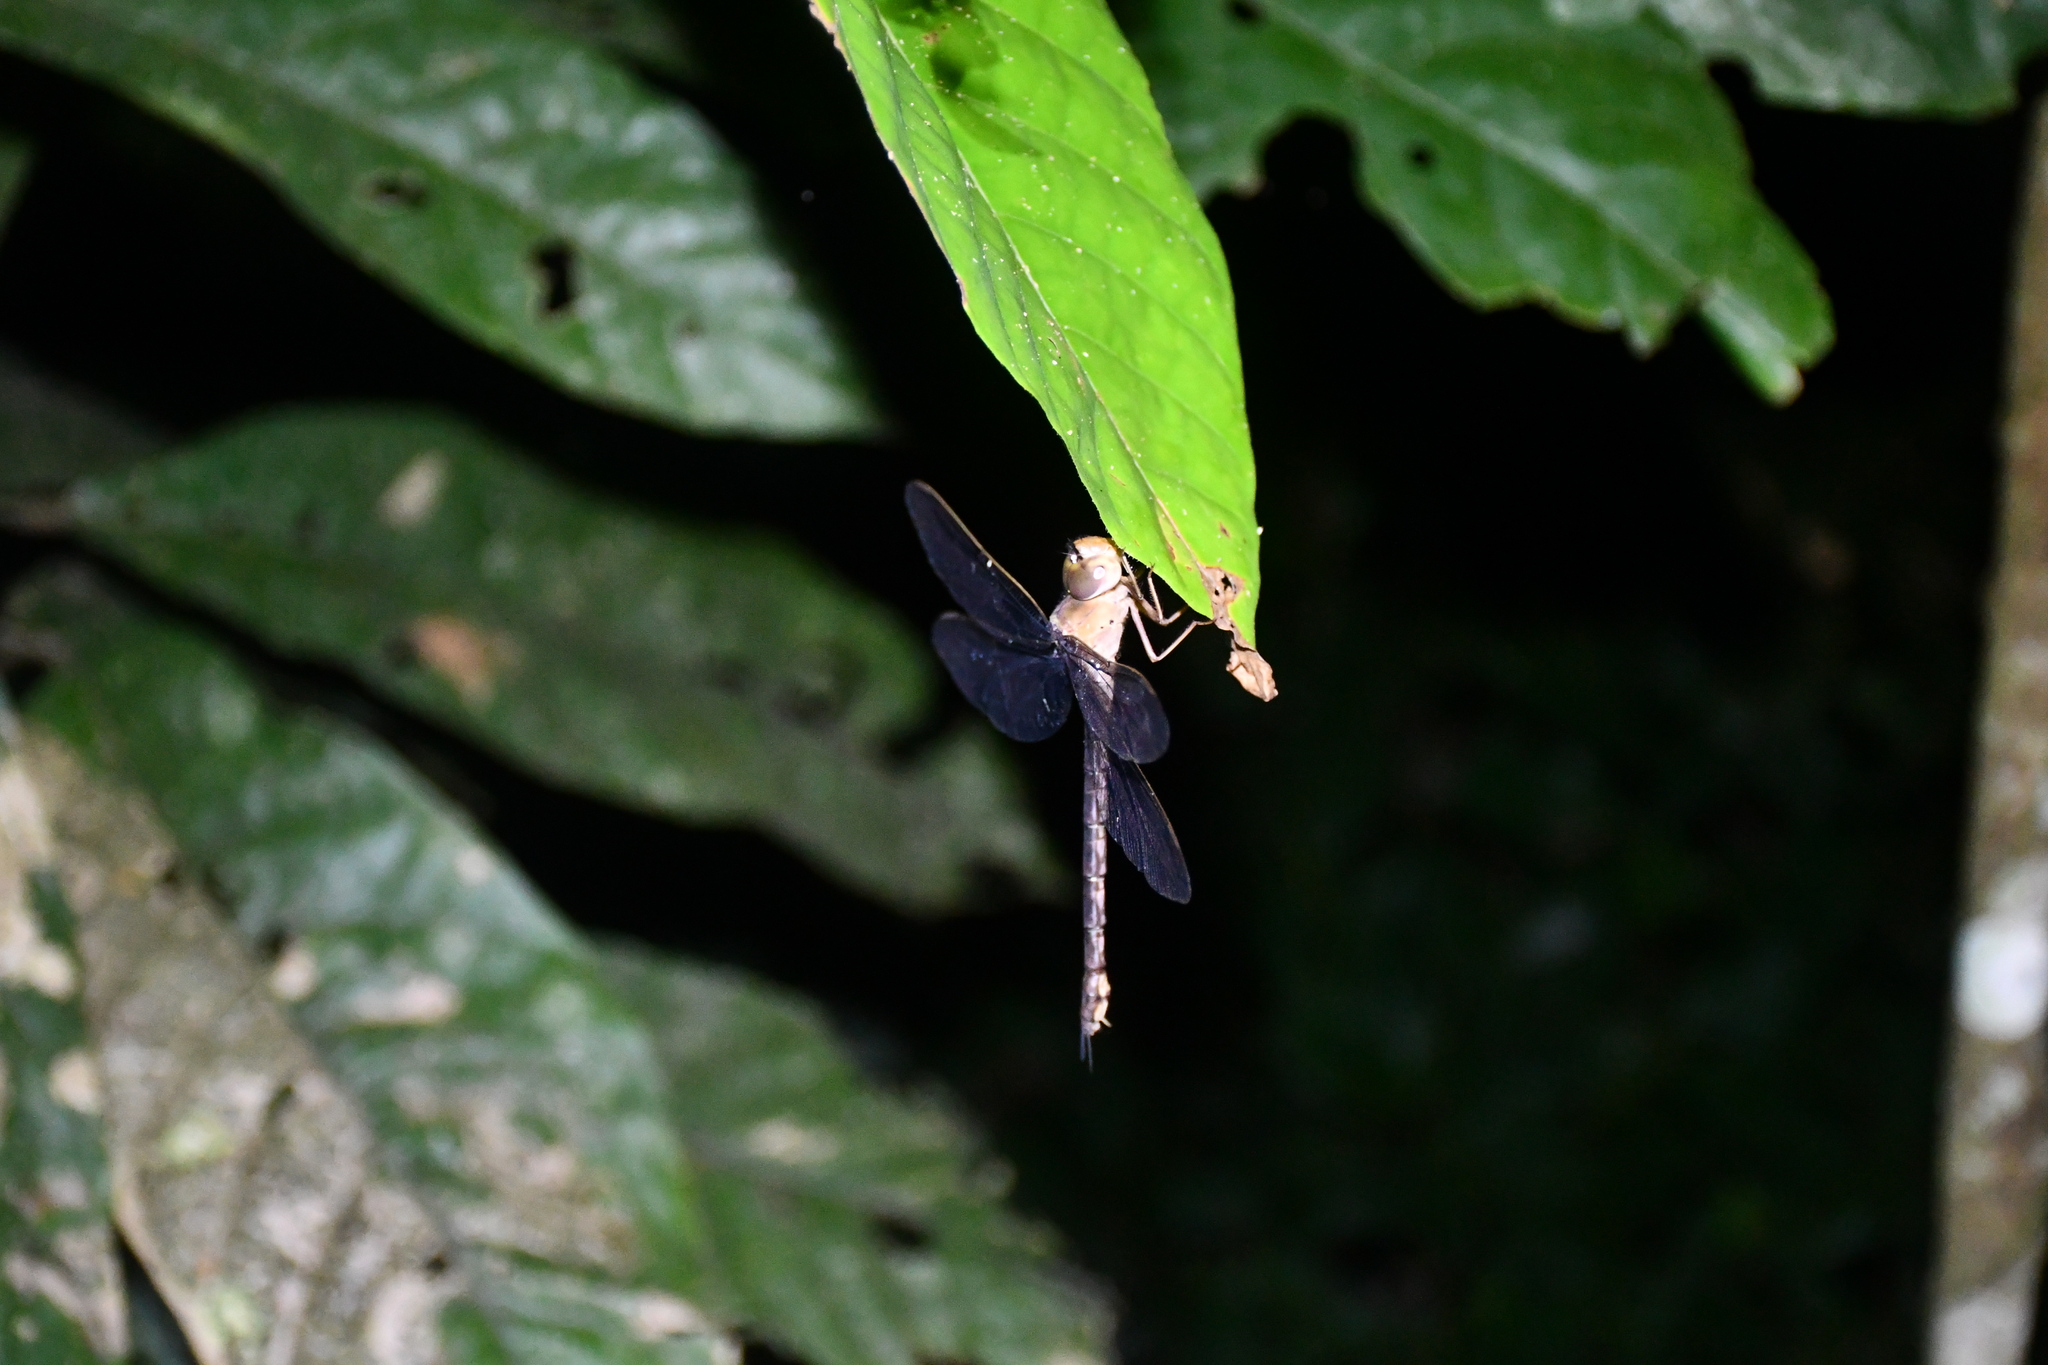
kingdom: Animalia
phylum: Arthropoda
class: Insecta
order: Odonata
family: Aeshnidae
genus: Gynacantha
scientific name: Gynacantha bifida
